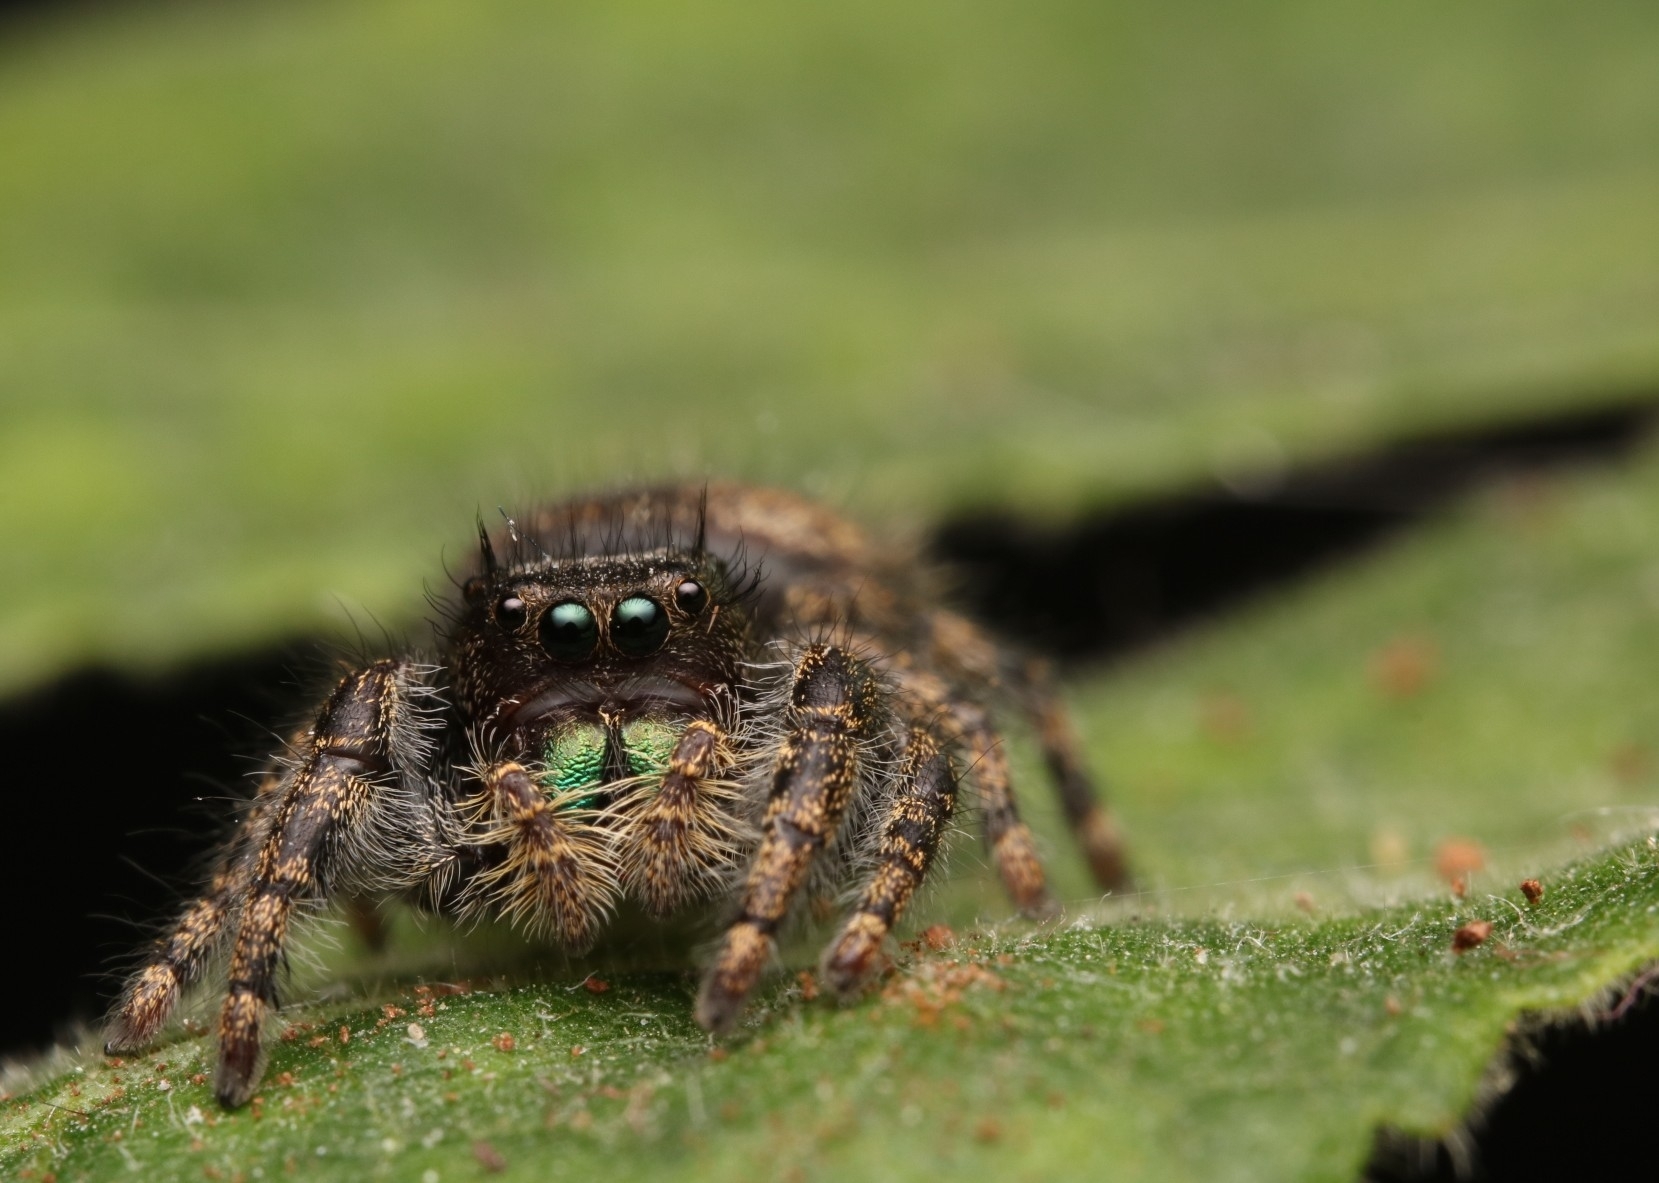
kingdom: Animalia
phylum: Arthropoda
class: Arachnida
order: Araneae
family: Salticidae
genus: Phidippus
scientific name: Phidippus audax
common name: Bold jumper
